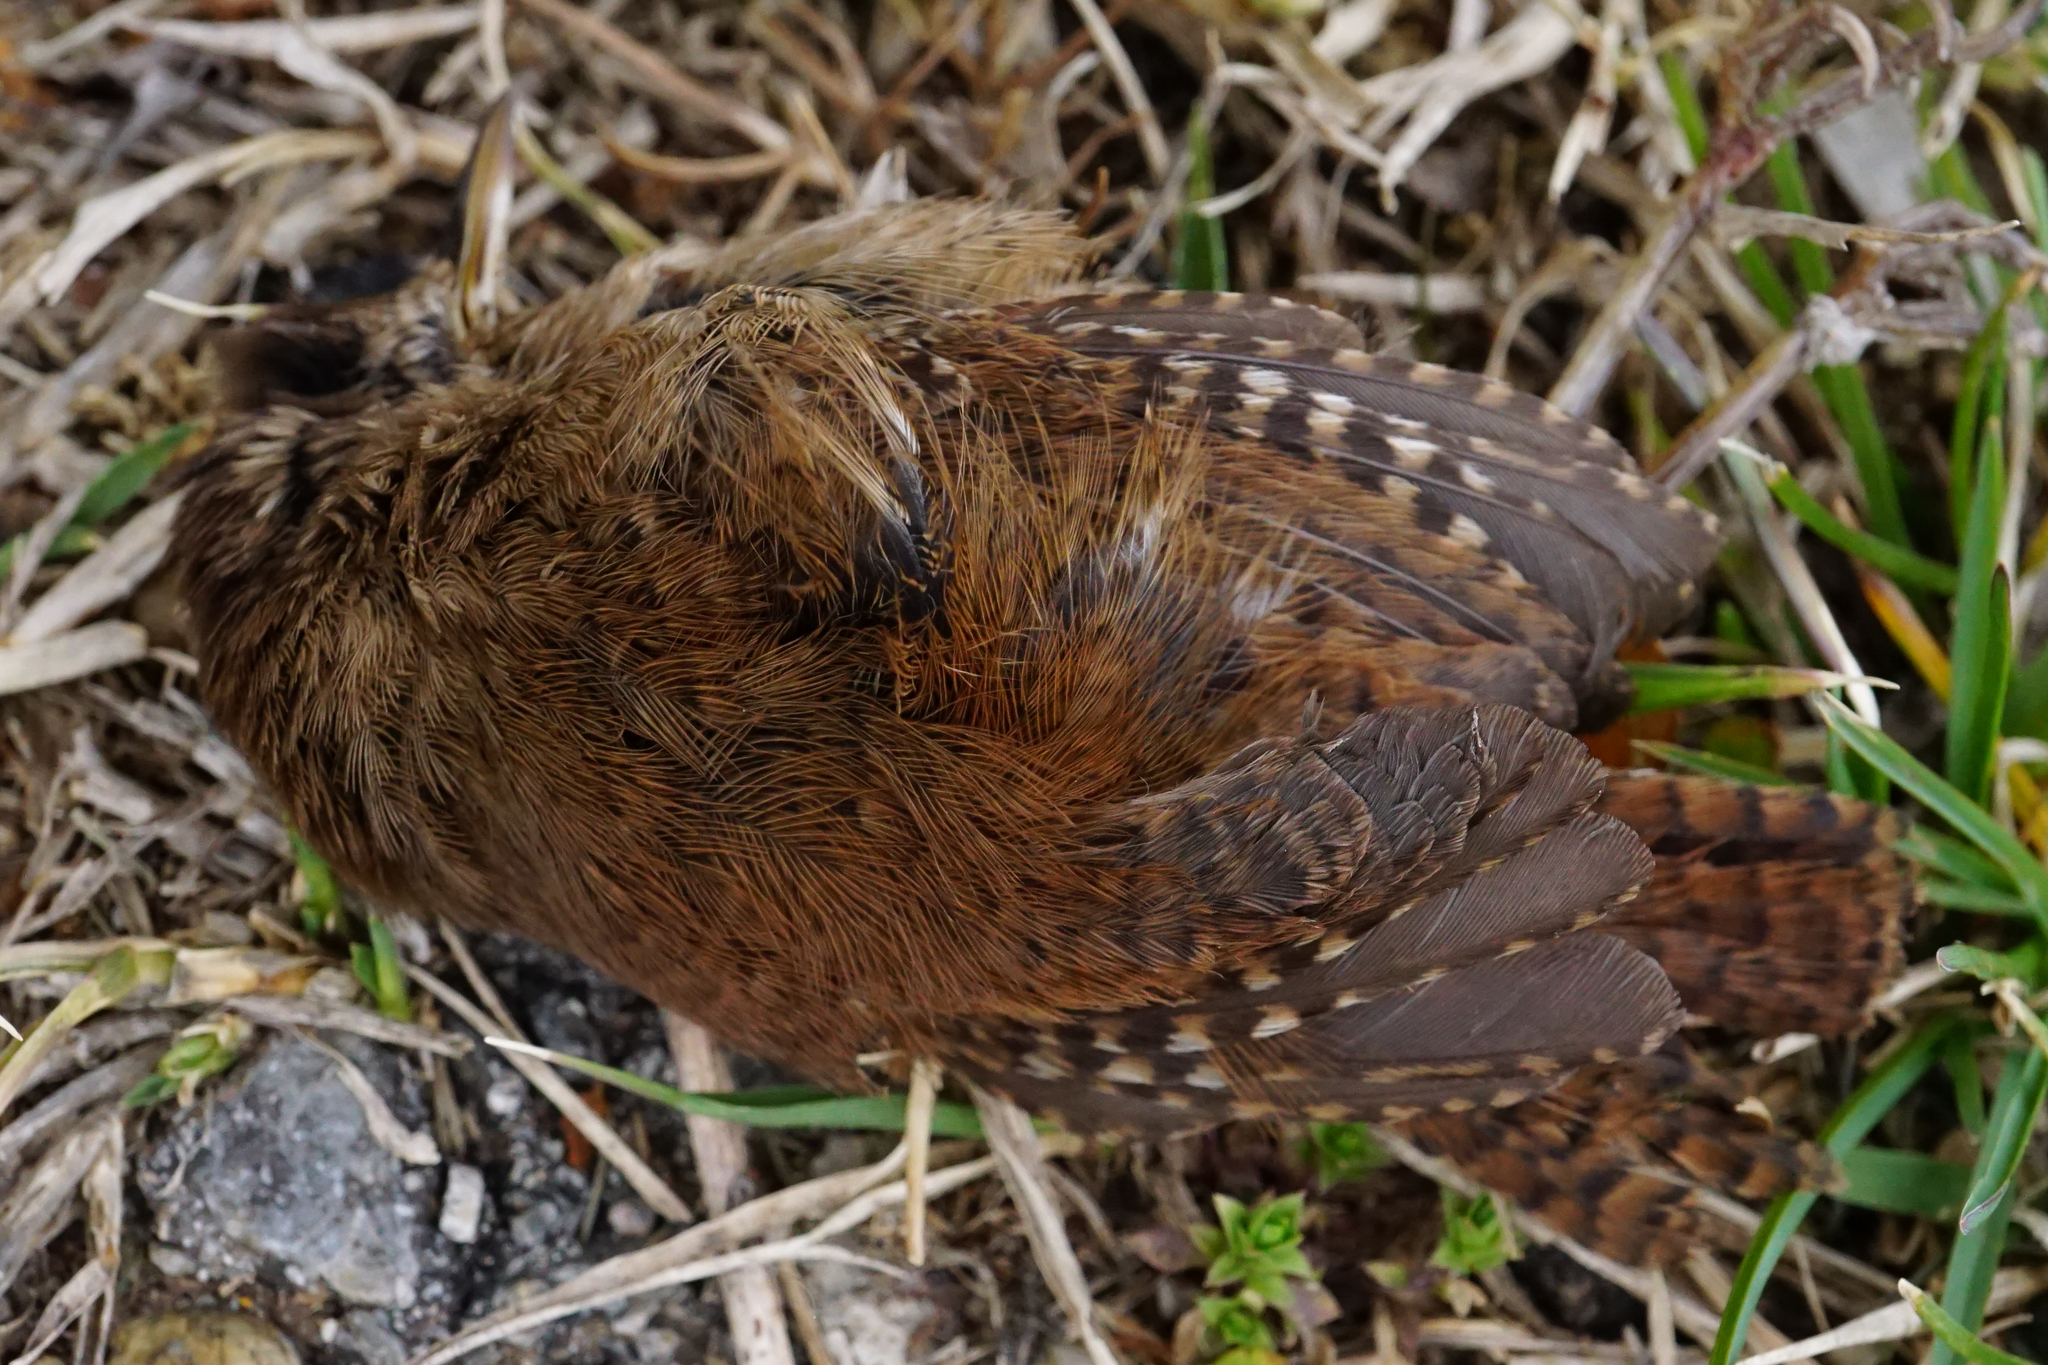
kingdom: Animalia
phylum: Chordata
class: Aves
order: Passeriformes
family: Troglodytidae
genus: Troglodytes
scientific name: Troglodytes troglodytes
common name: Eurasian wren
